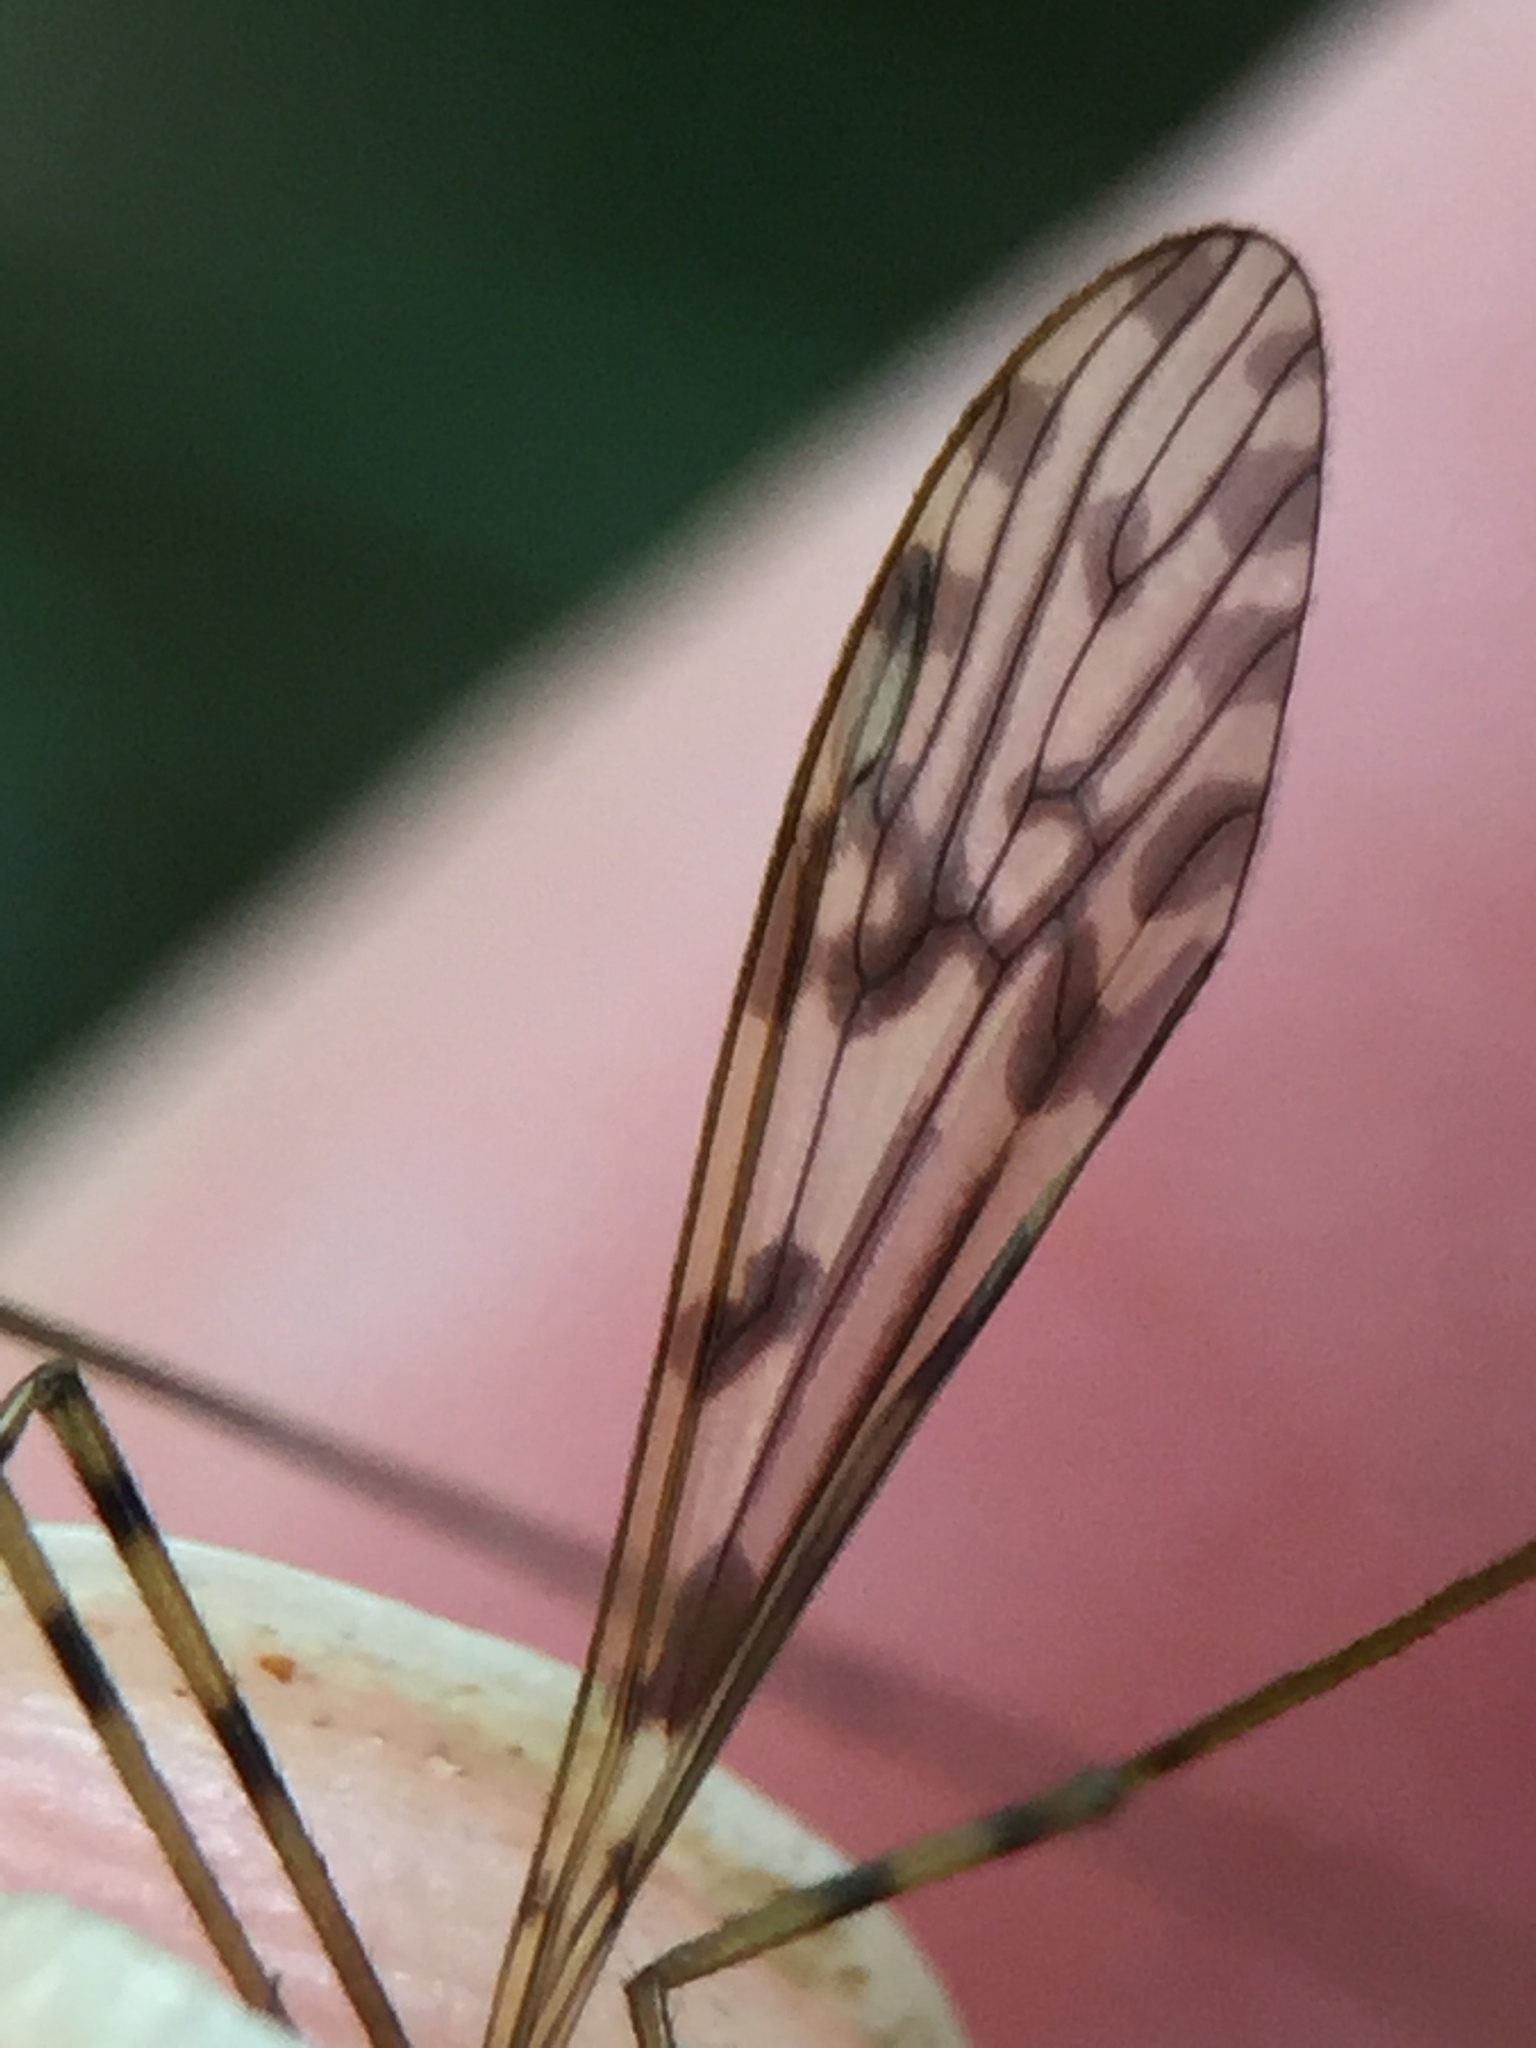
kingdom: Animalia
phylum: Arthropoda
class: Insecta
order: Diptera
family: Limoniidae
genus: Austrolimnophila
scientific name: Austrolimnophila obliquata
